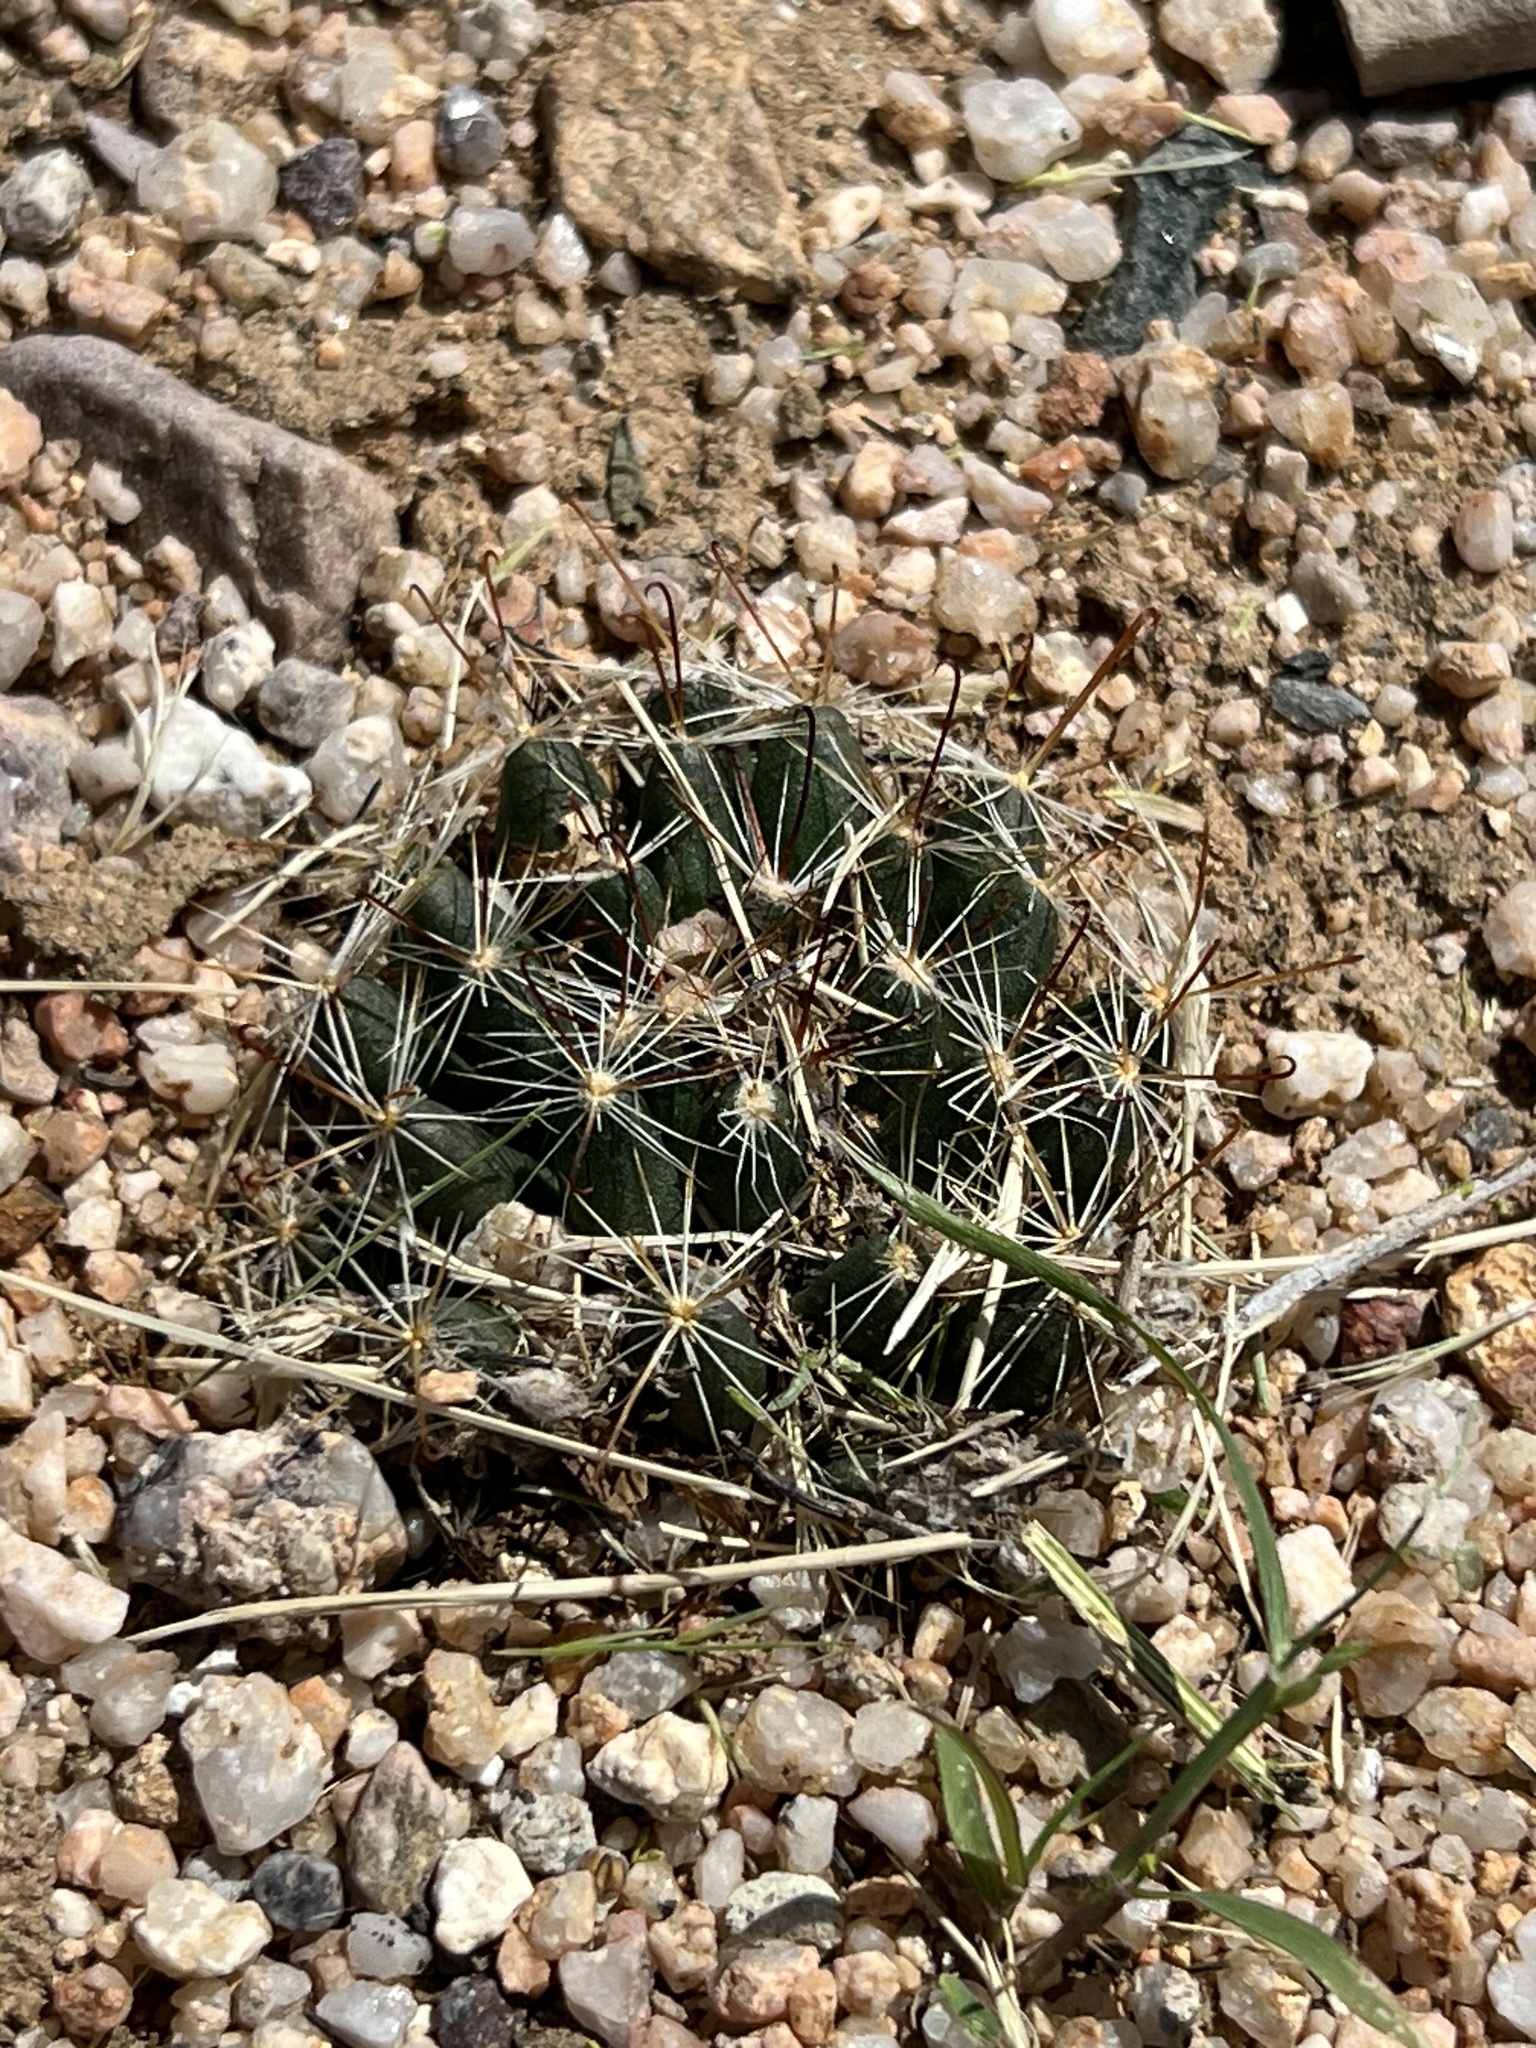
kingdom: Plantae
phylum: Tracheophyta
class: Magnoliopsida
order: Caryophyllales
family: Cactaceae
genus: Cochemiea
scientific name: Cochemiea wrightii
